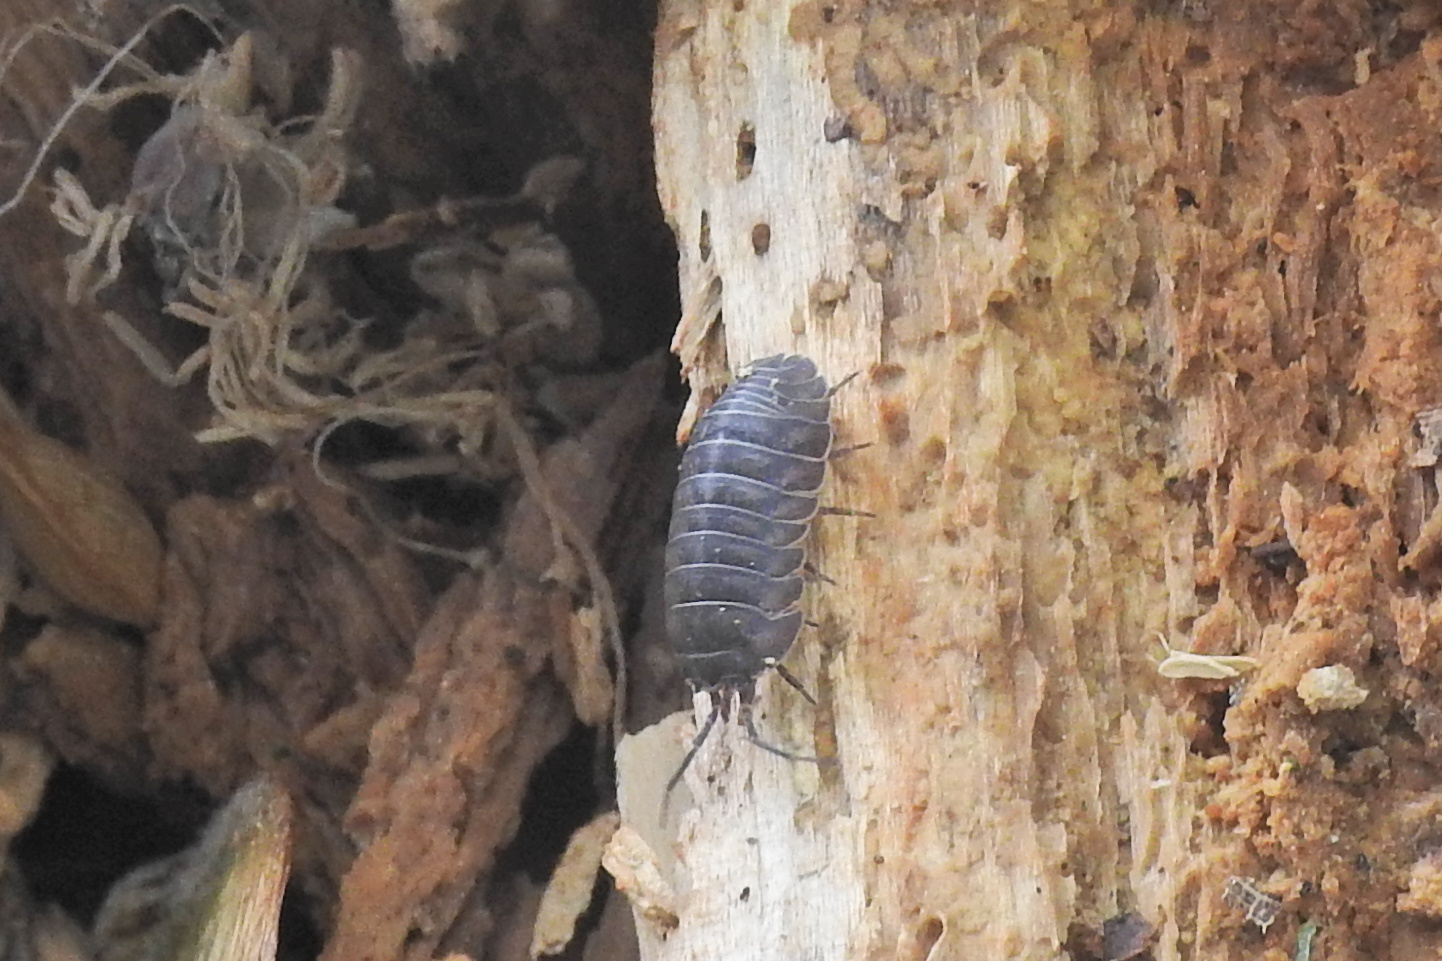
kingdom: Animalia
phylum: Arthropoda
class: Malacostraca
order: Isopoda
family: Armadillidiidae
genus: Armadillidium
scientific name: Armadillidium nasatum
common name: Isopod
